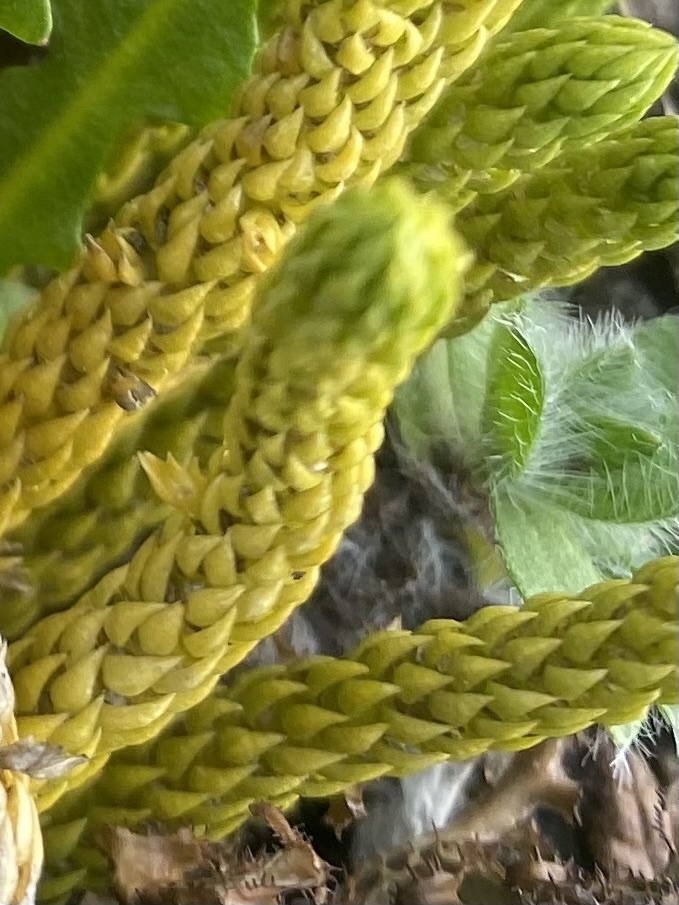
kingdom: Plantae
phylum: Tracheophyta
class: Magnoliopsida
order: Boraginales
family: Boraginaceae
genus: Eritrichium
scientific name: Eritrichium villosum
